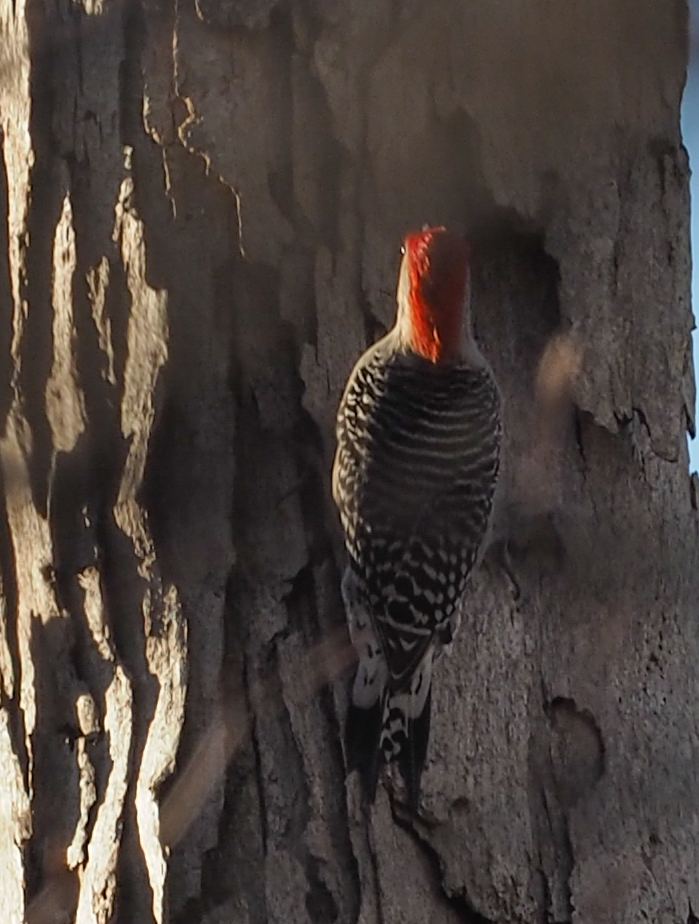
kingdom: Animalia
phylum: Chordata
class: Aves
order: Piciformes
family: Picidae
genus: Melanerpes
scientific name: Melanerpes carolinus
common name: Red-bellied woodpecker
